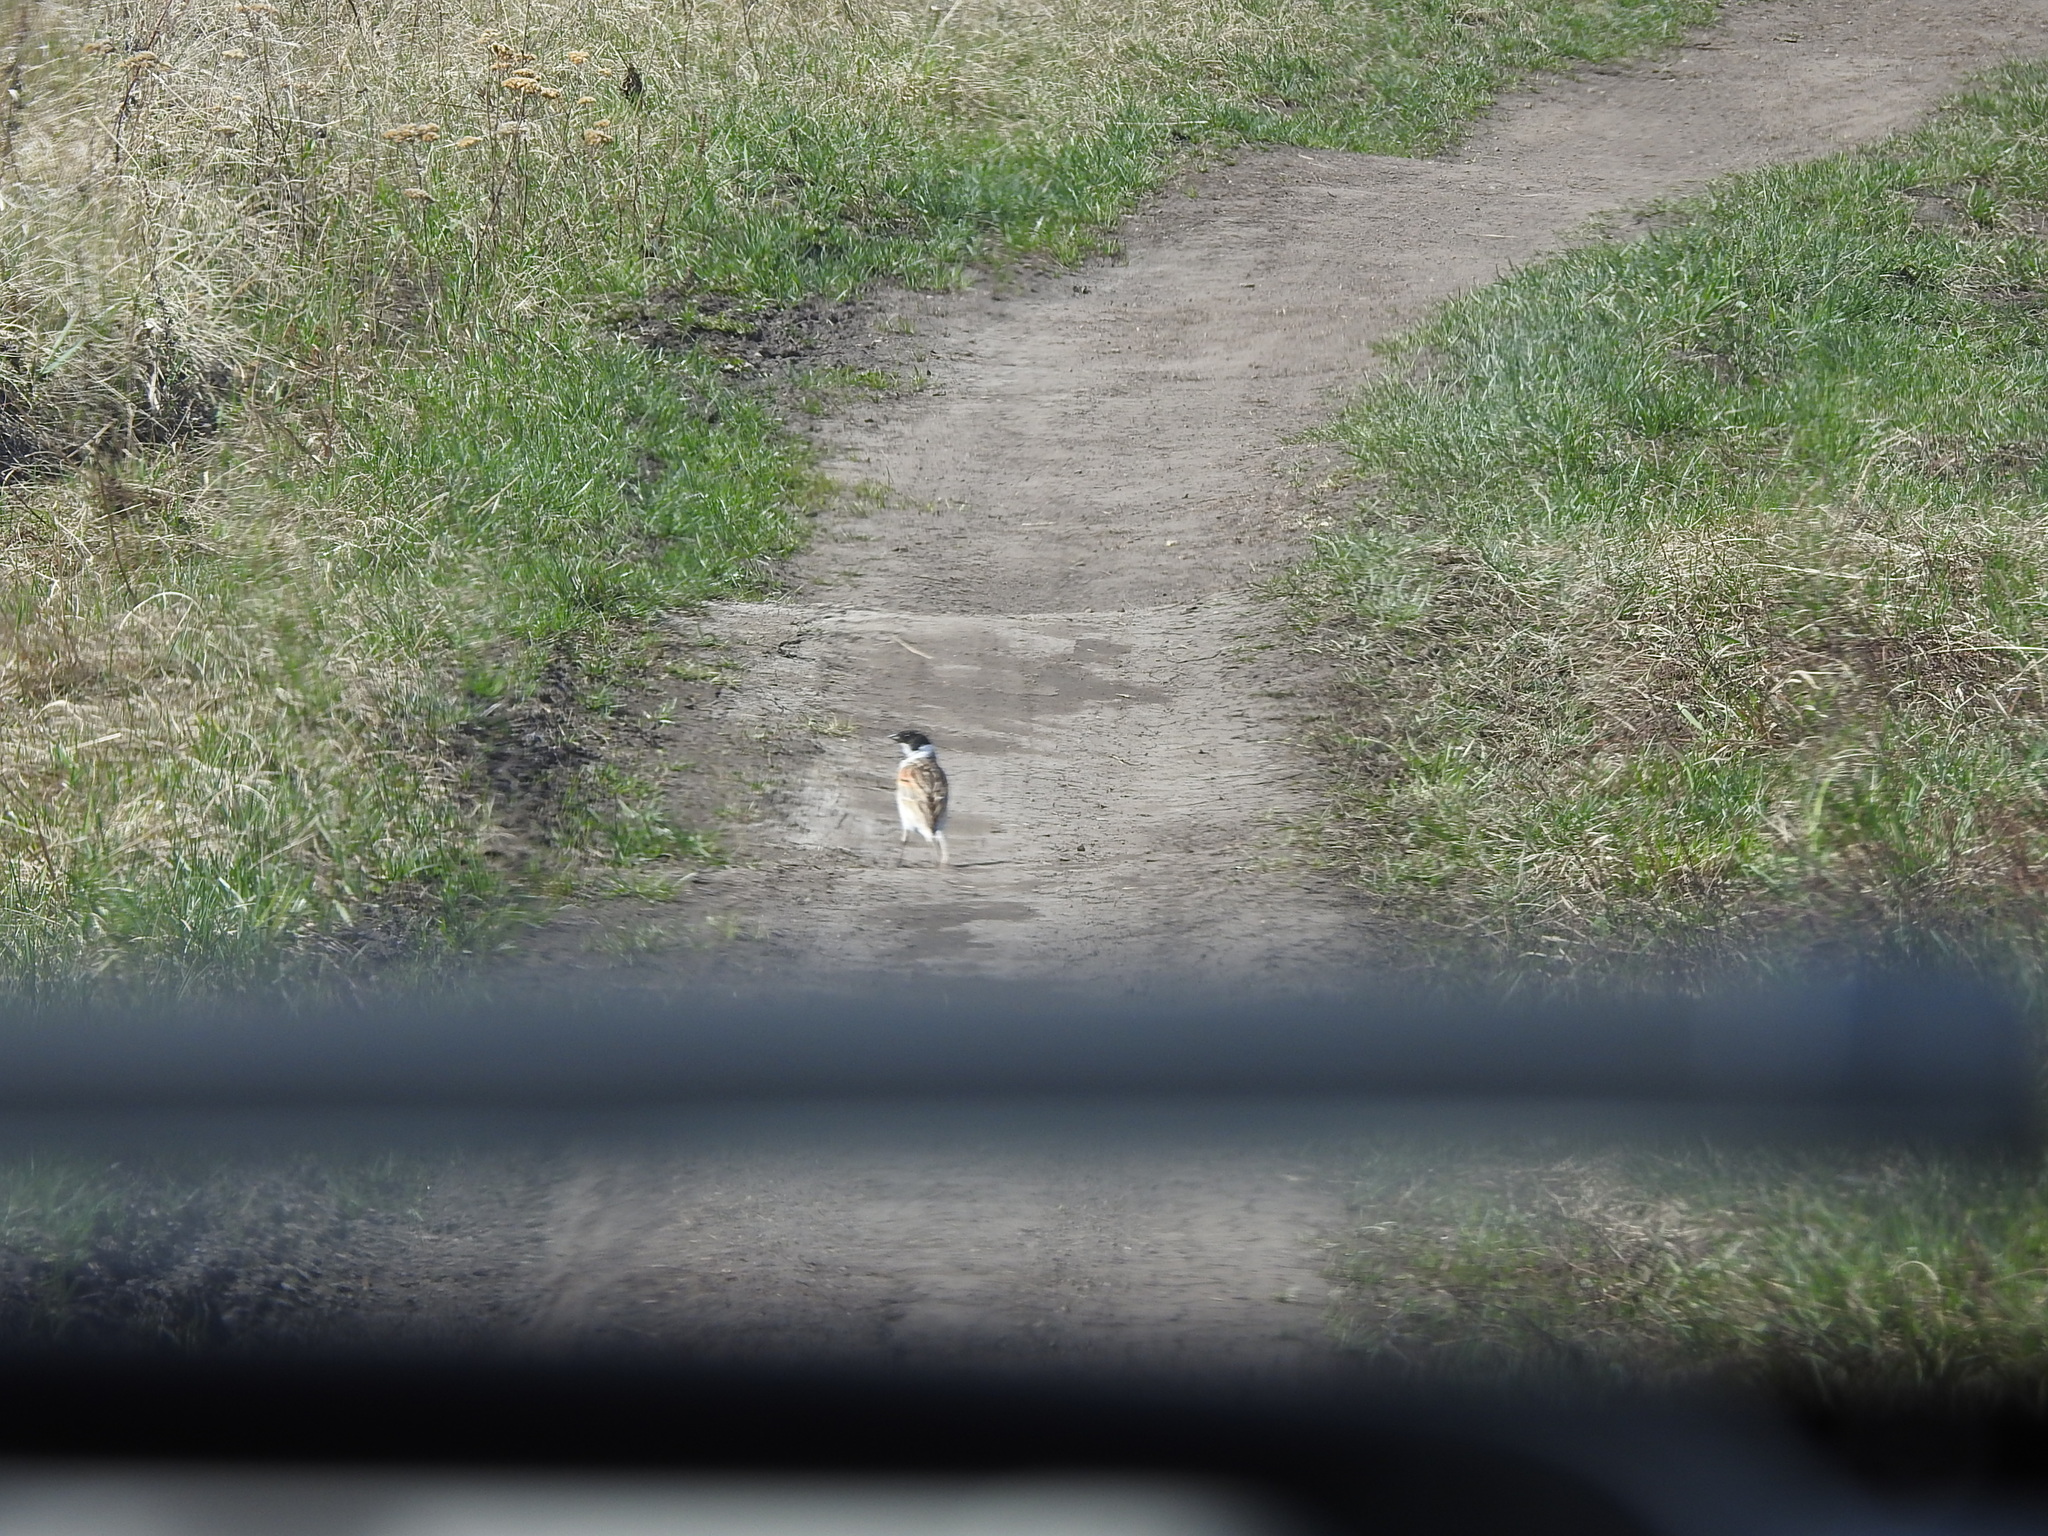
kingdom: Animalia
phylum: Chordata
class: Aves
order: Passeriformes
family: Emberizidae
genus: Emberiza
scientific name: Emberiza schoeniclus
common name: Reed bunting
